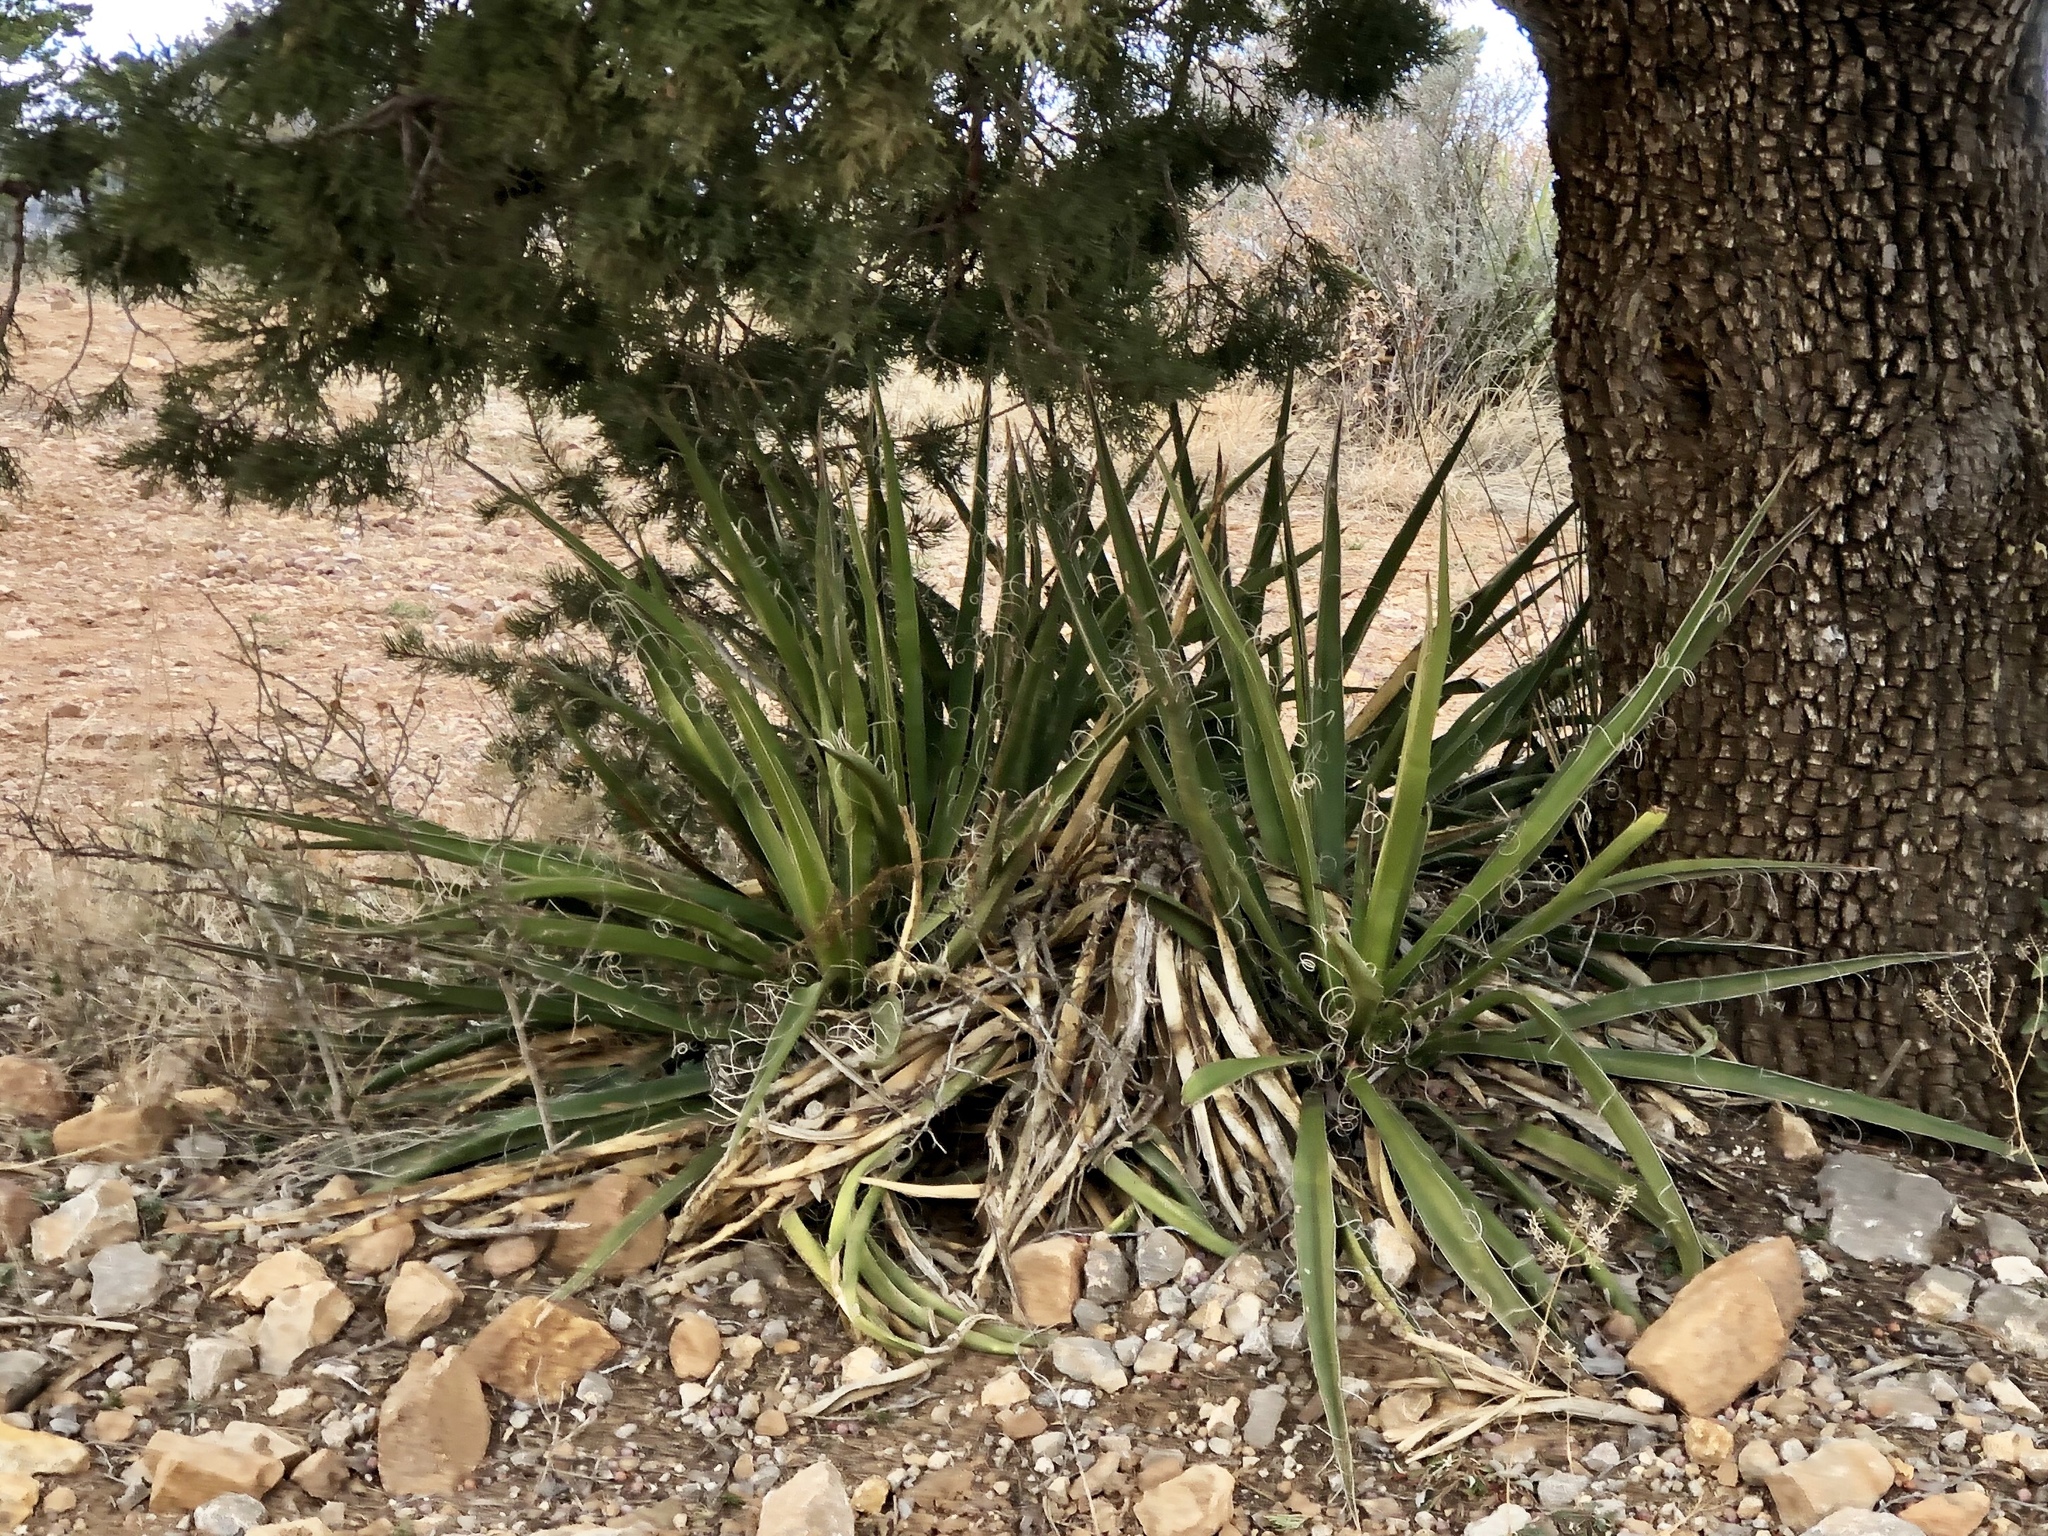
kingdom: Plantae
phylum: Tracheophyta
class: Liliopsida
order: Asparagales
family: Asparagaceae
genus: Yucca
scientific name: Yucca baccata
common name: Banana yucca
